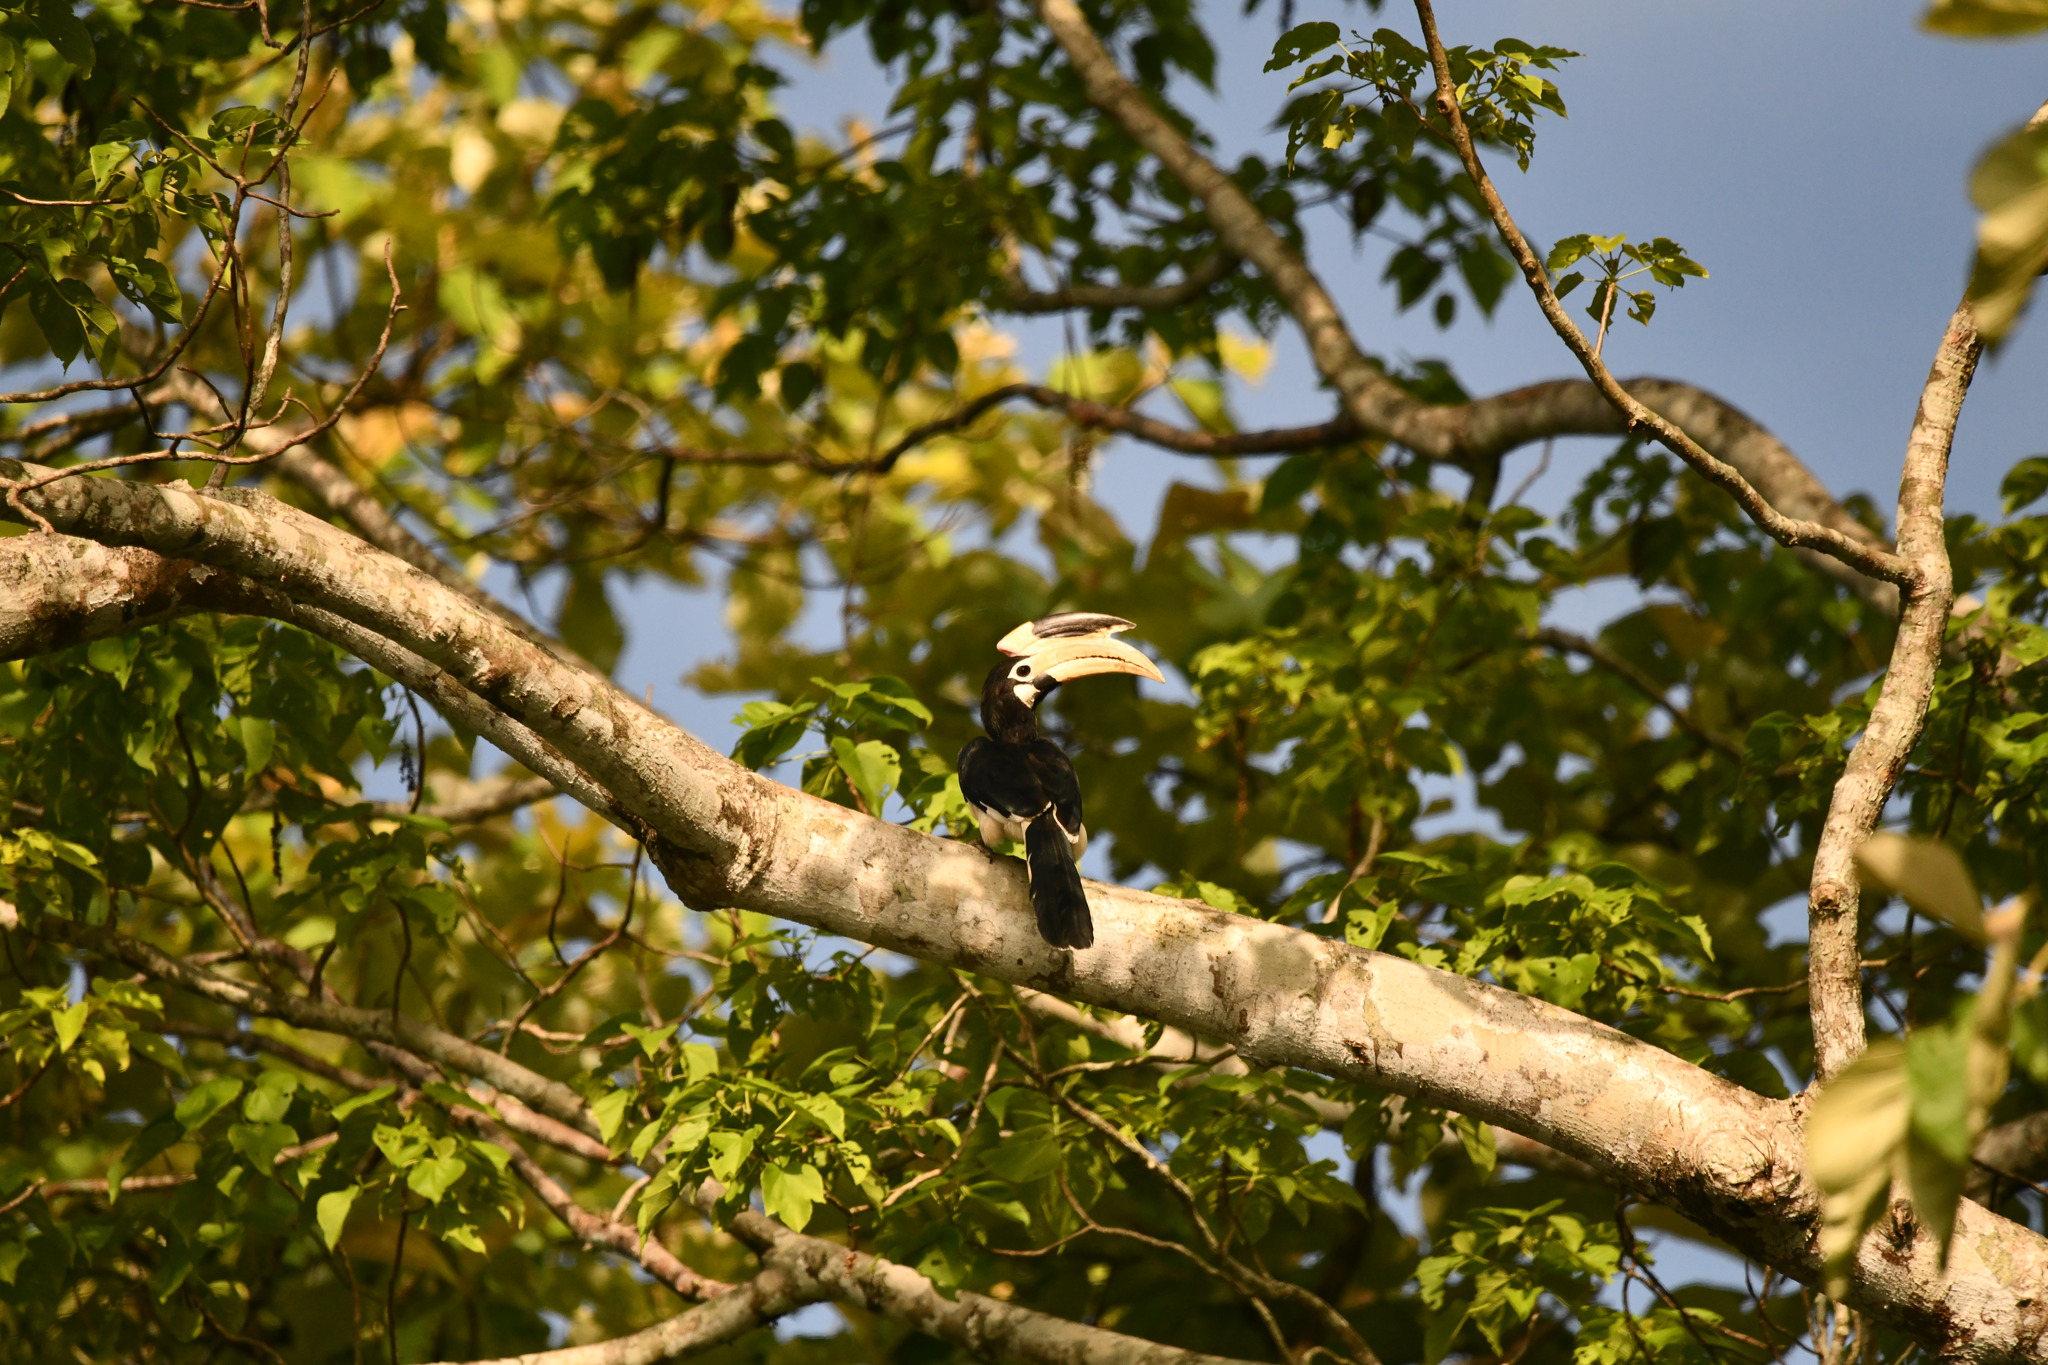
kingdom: Animalia
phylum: Chordata
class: Aves
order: Bucerotiformes
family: Bucerotidae
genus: Anthracoceros
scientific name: Anthracoceros coronatus
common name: Malabar pied hornbill
